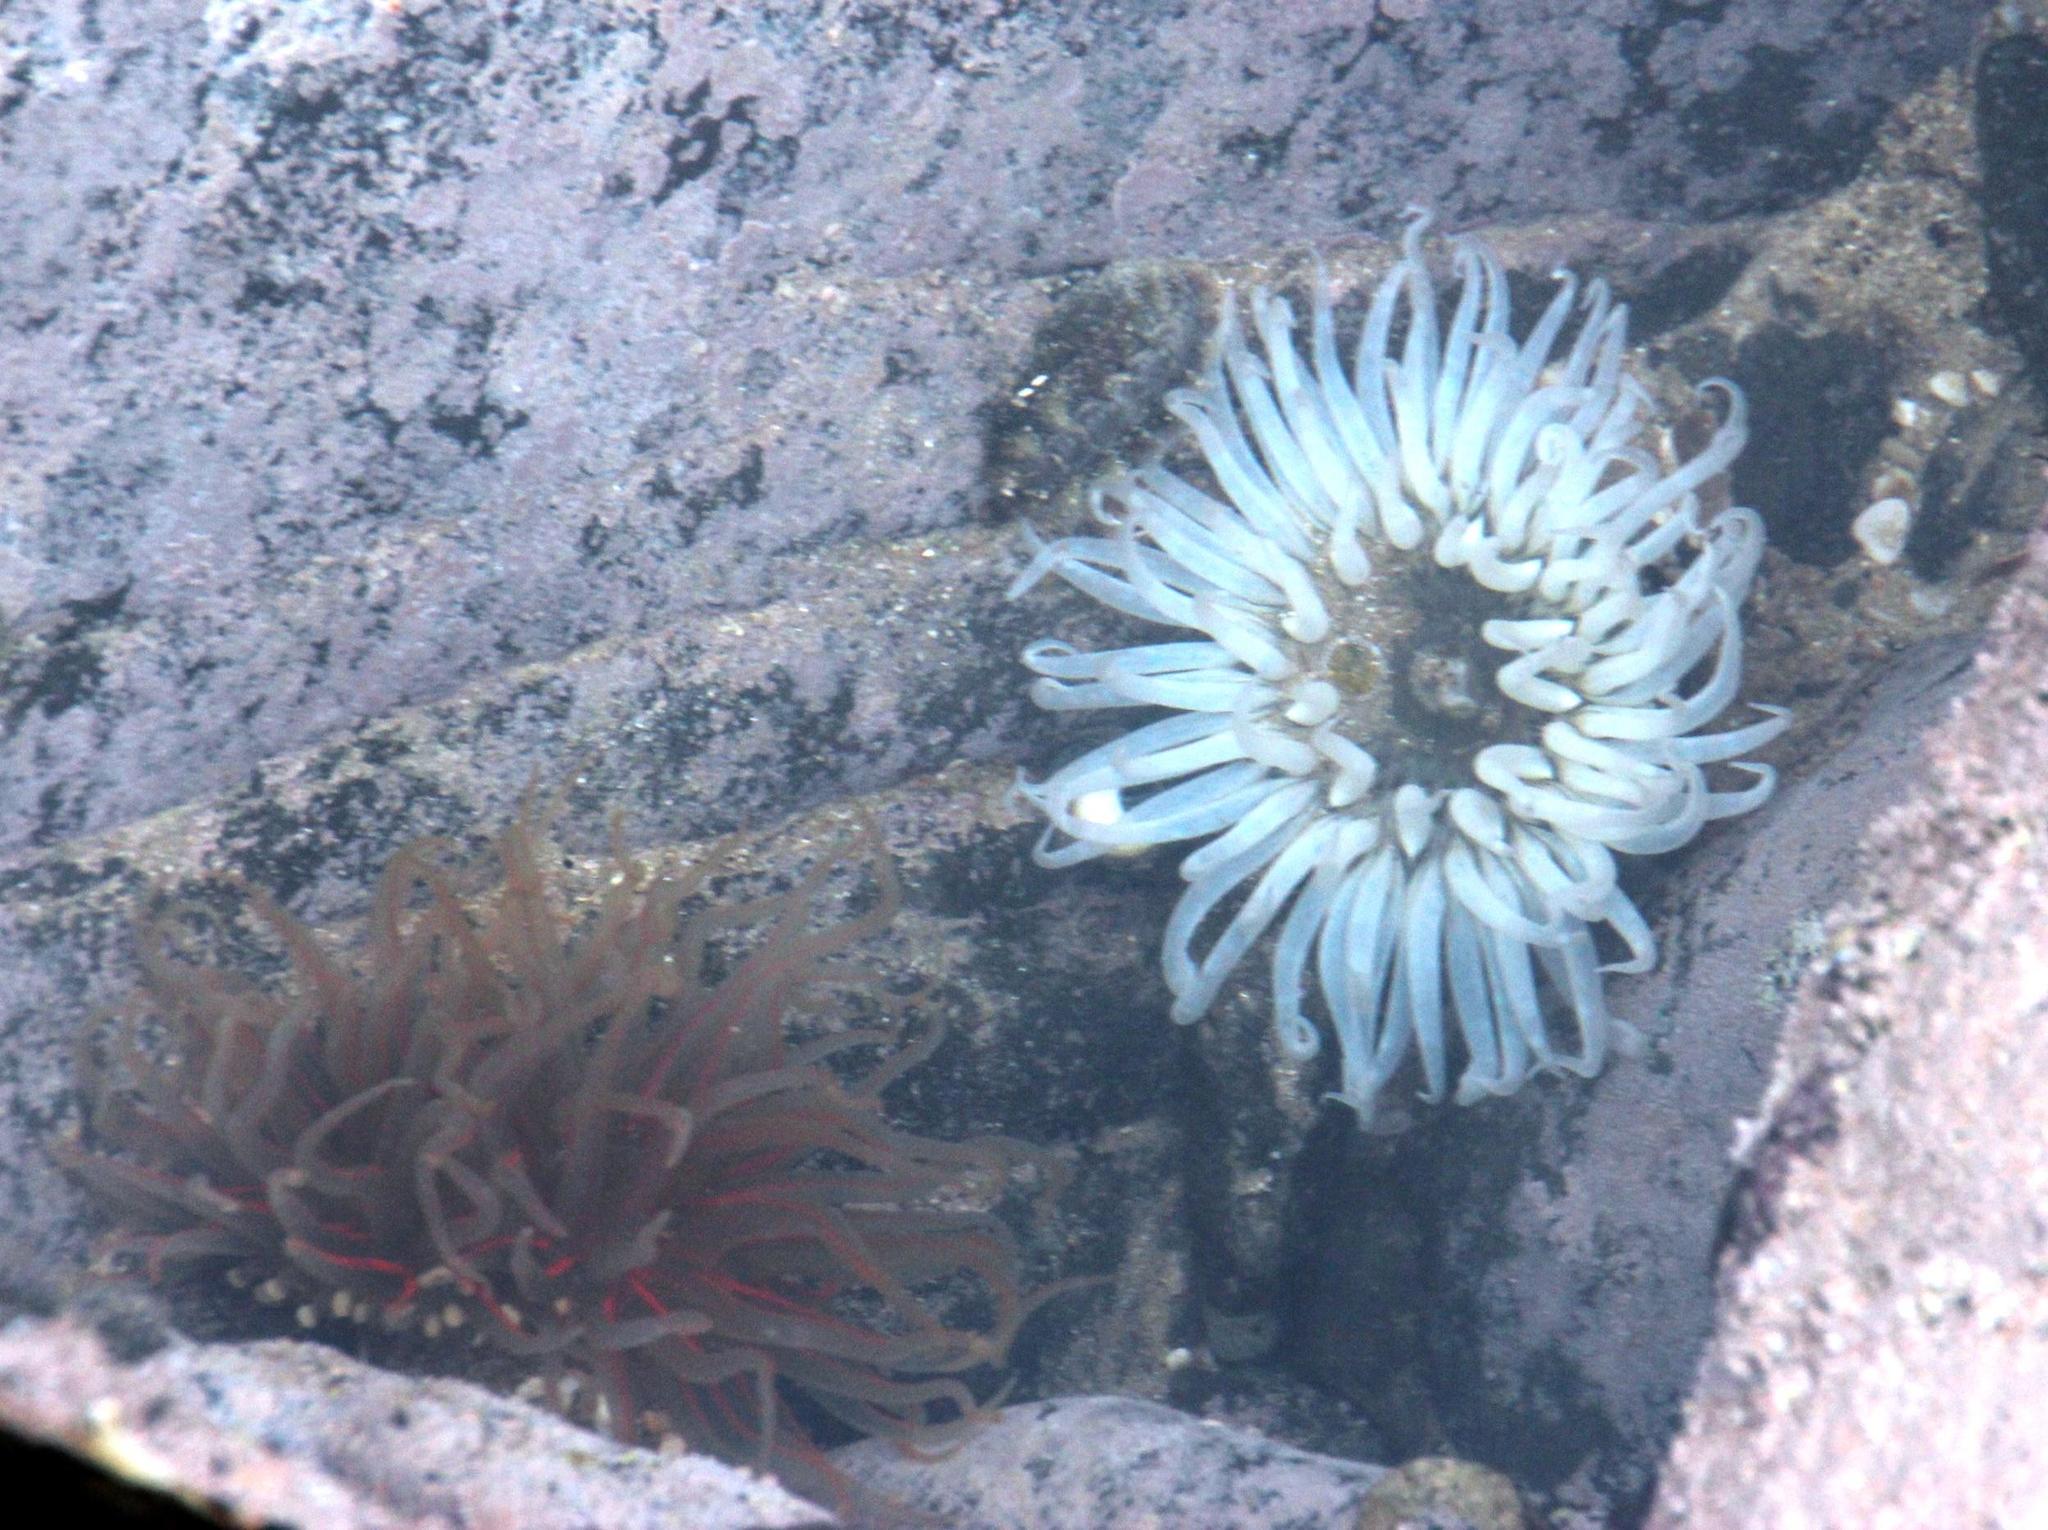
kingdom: Animalia
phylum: Cnidaria
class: Anthozoa
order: Actiniaria
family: Actiniidae
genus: Anthopleura
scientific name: Anthopleura michaelseni
